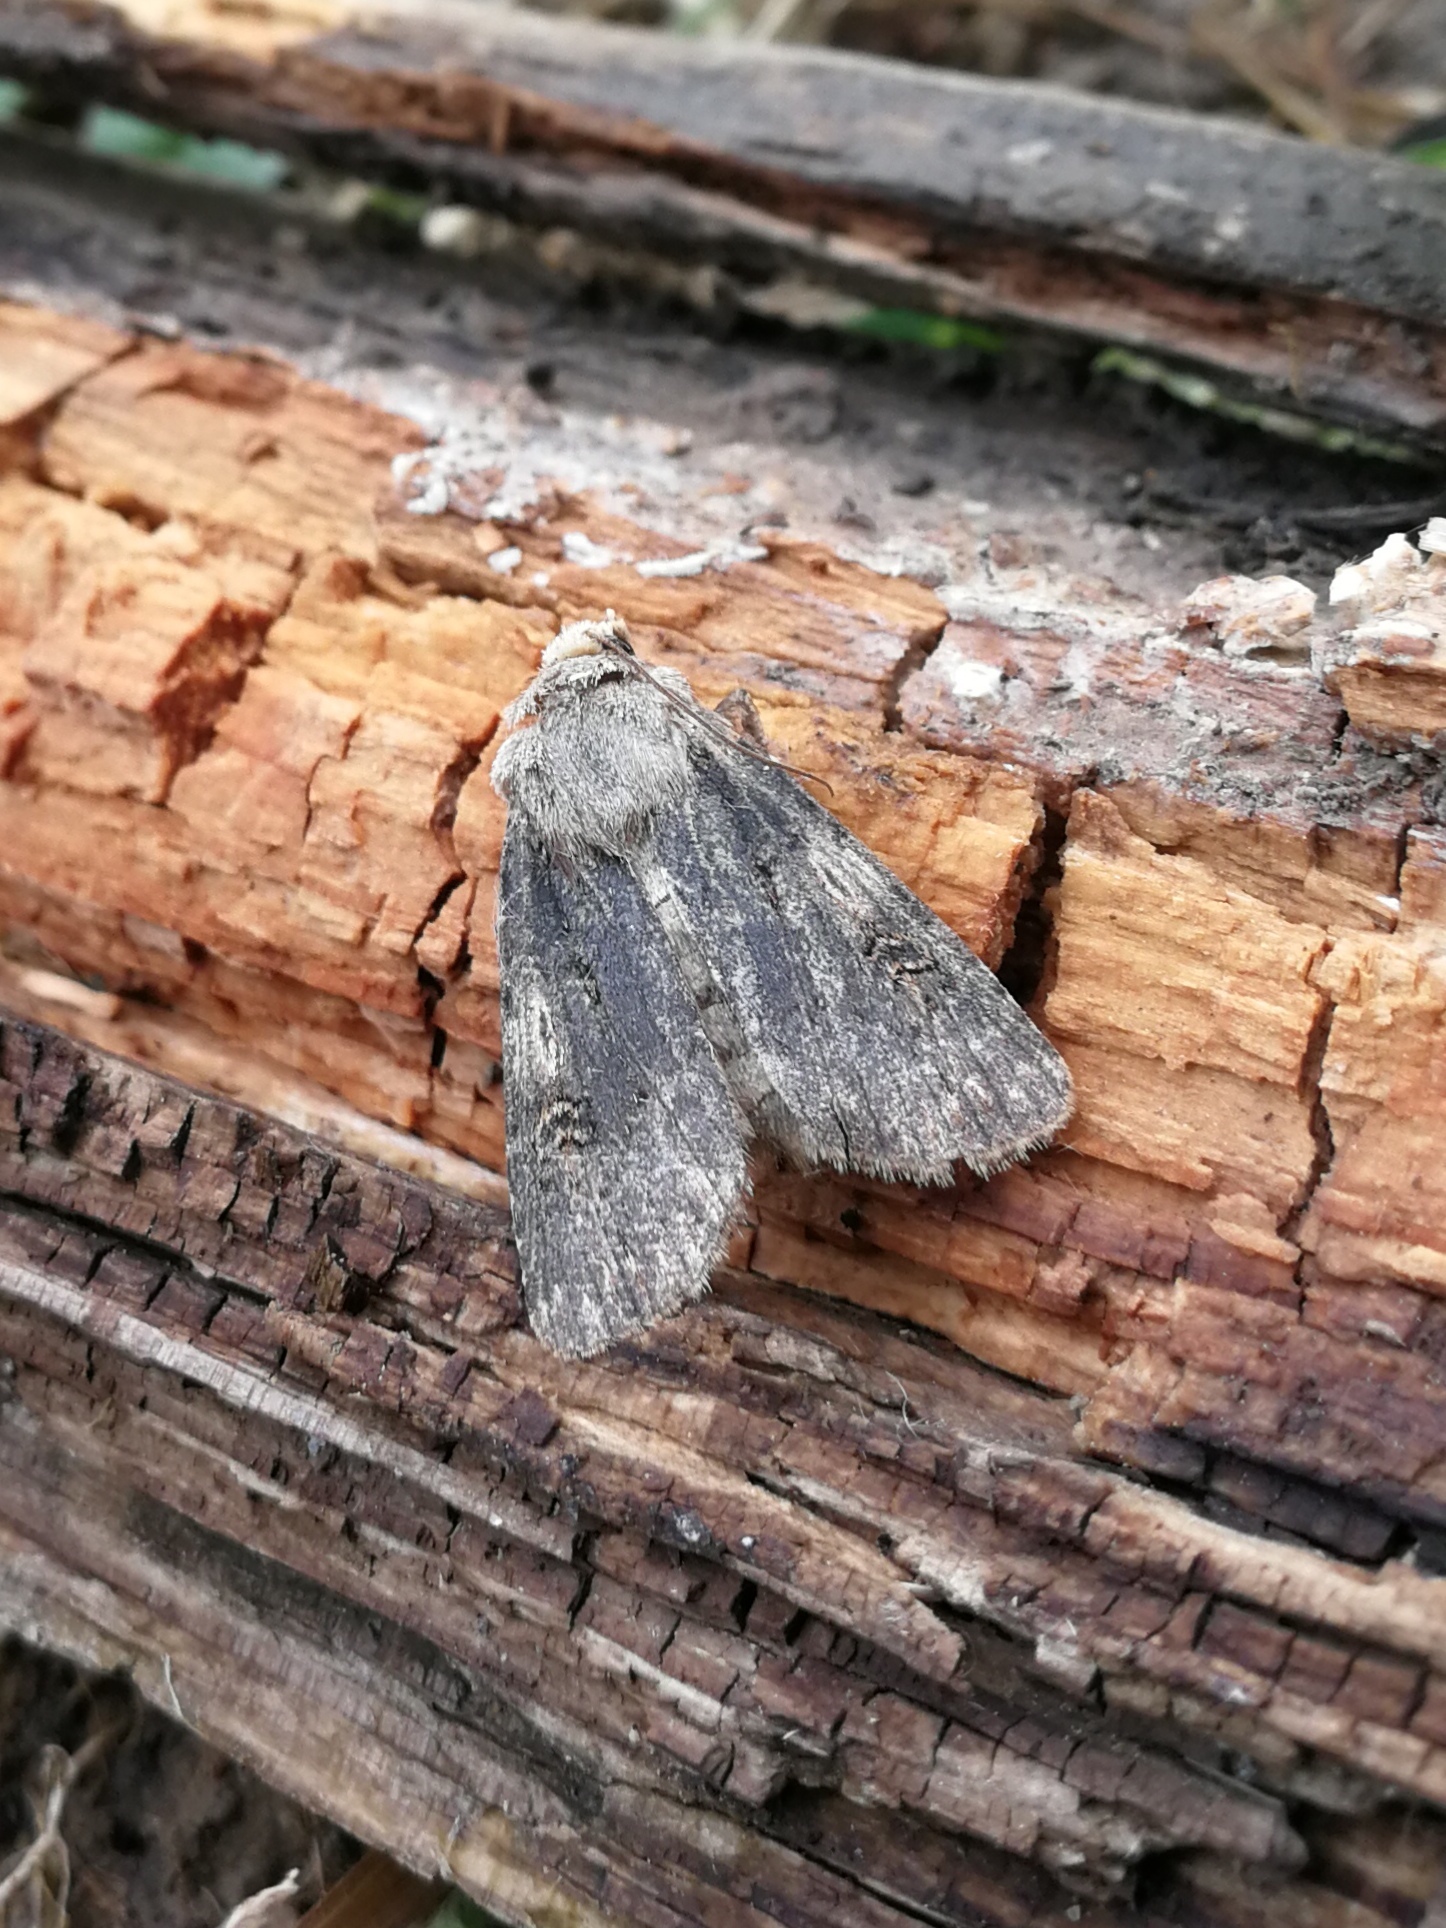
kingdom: Animalia
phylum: Arthropoda
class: Insecta
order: Lepidoptera
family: Noctuidae
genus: Agrotis
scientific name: Agrotis puta
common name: Shuttle-shaped dart
